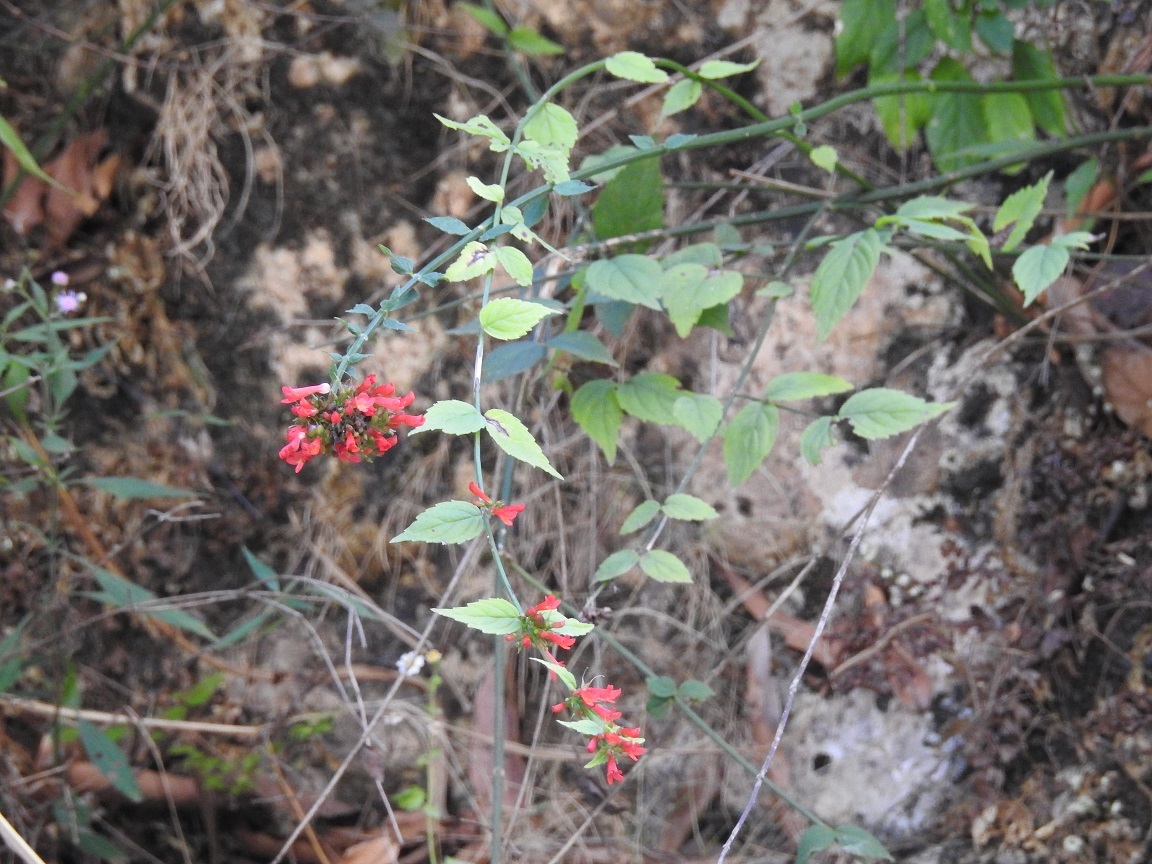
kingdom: Plantae
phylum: Tracheophyta
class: Magnoliopsida
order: Lamiales
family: Plantaginaceae
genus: Russelia
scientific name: Russelia coccinea
